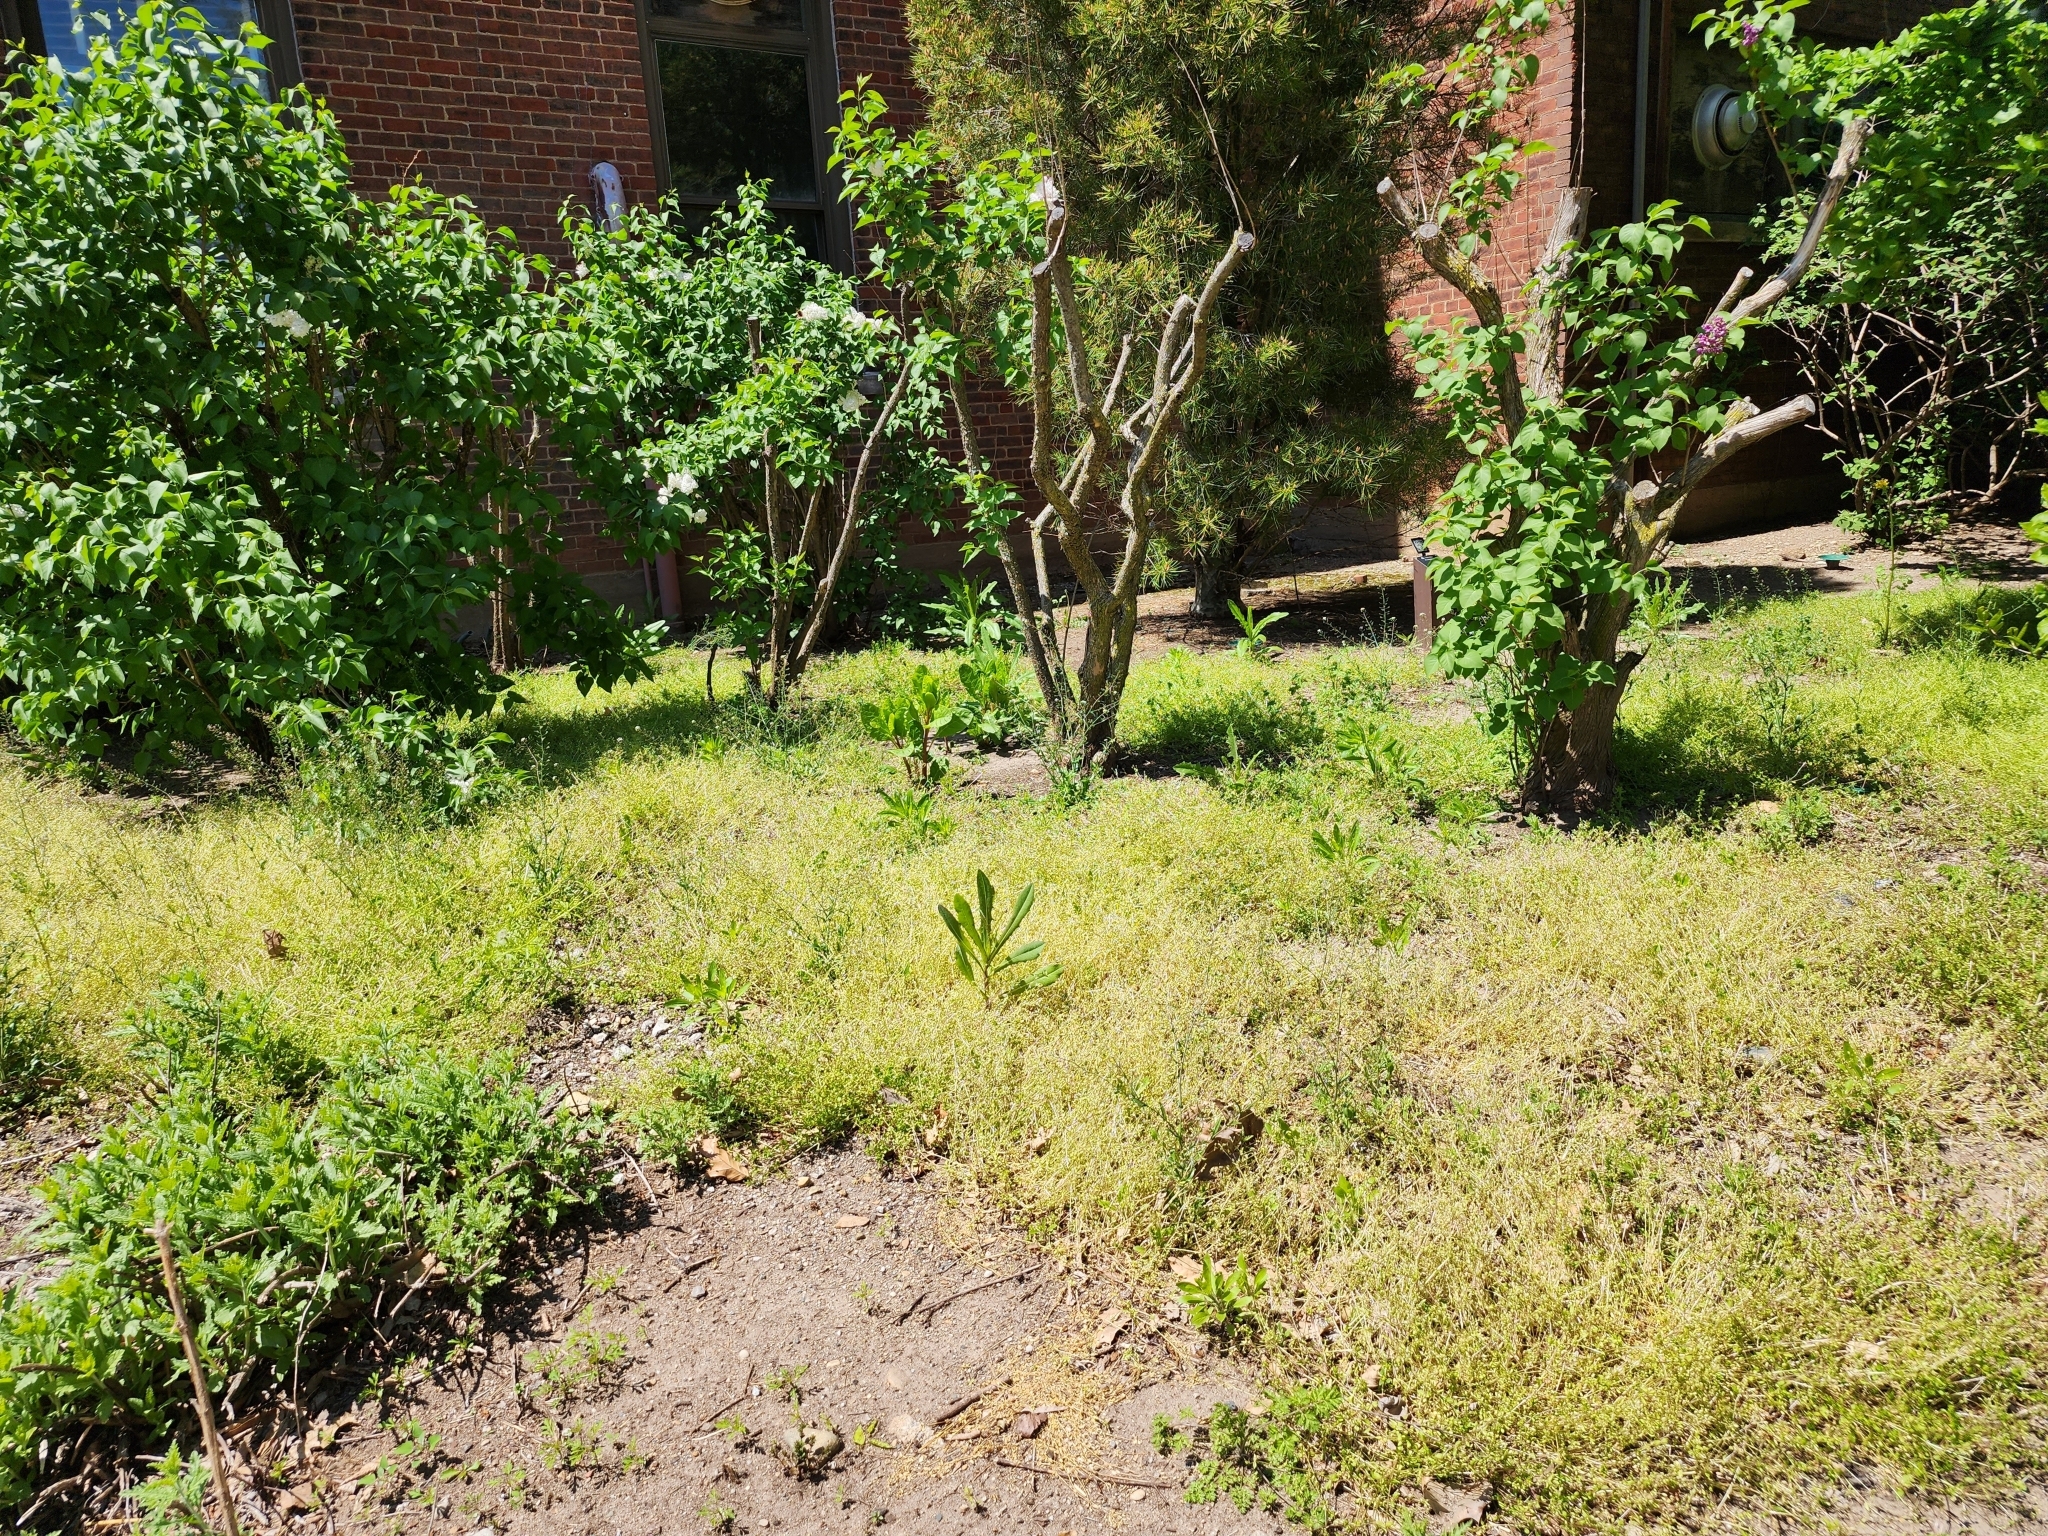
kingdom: Plantae
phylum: Tracheophyta
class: Magnoliopsida
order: Asterales
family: Asteraceae
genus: Lactuca
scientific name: Lactuca serriola
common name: Prickly lettuce
